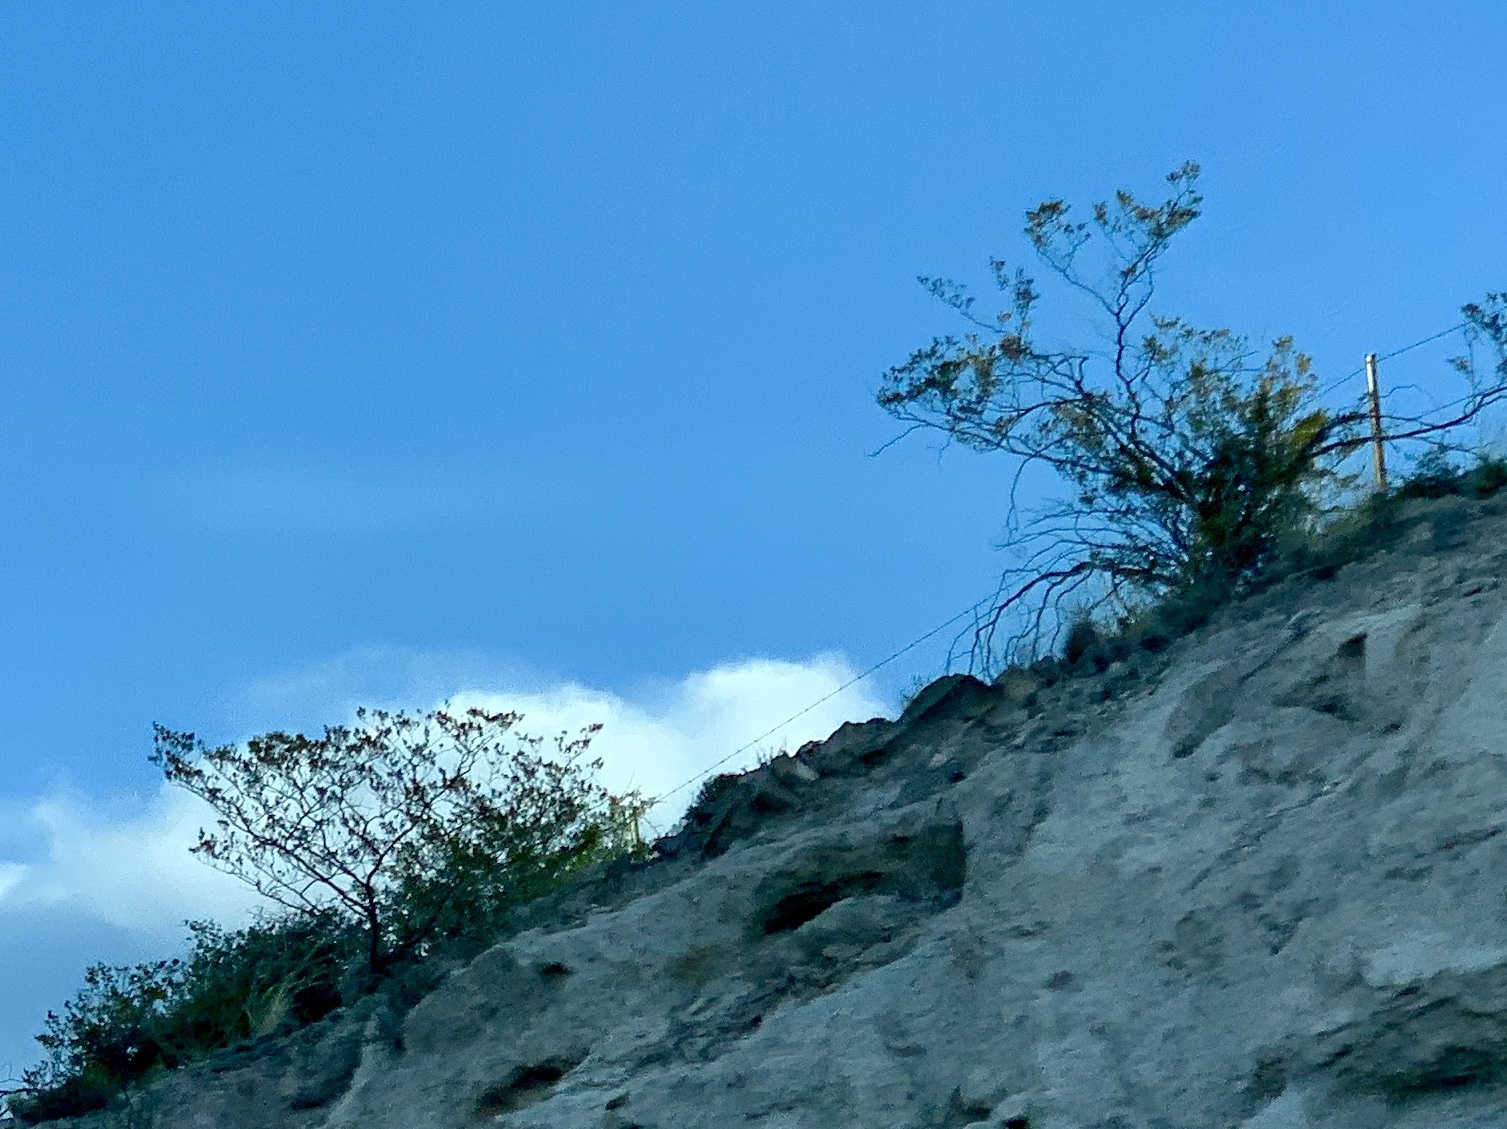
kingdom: Plantae
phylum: Tracheophyta
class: Magnoliopsida
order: Zygophyllales
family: Zygophyllaceae
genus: Larrea
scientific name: Larrea tridentata
